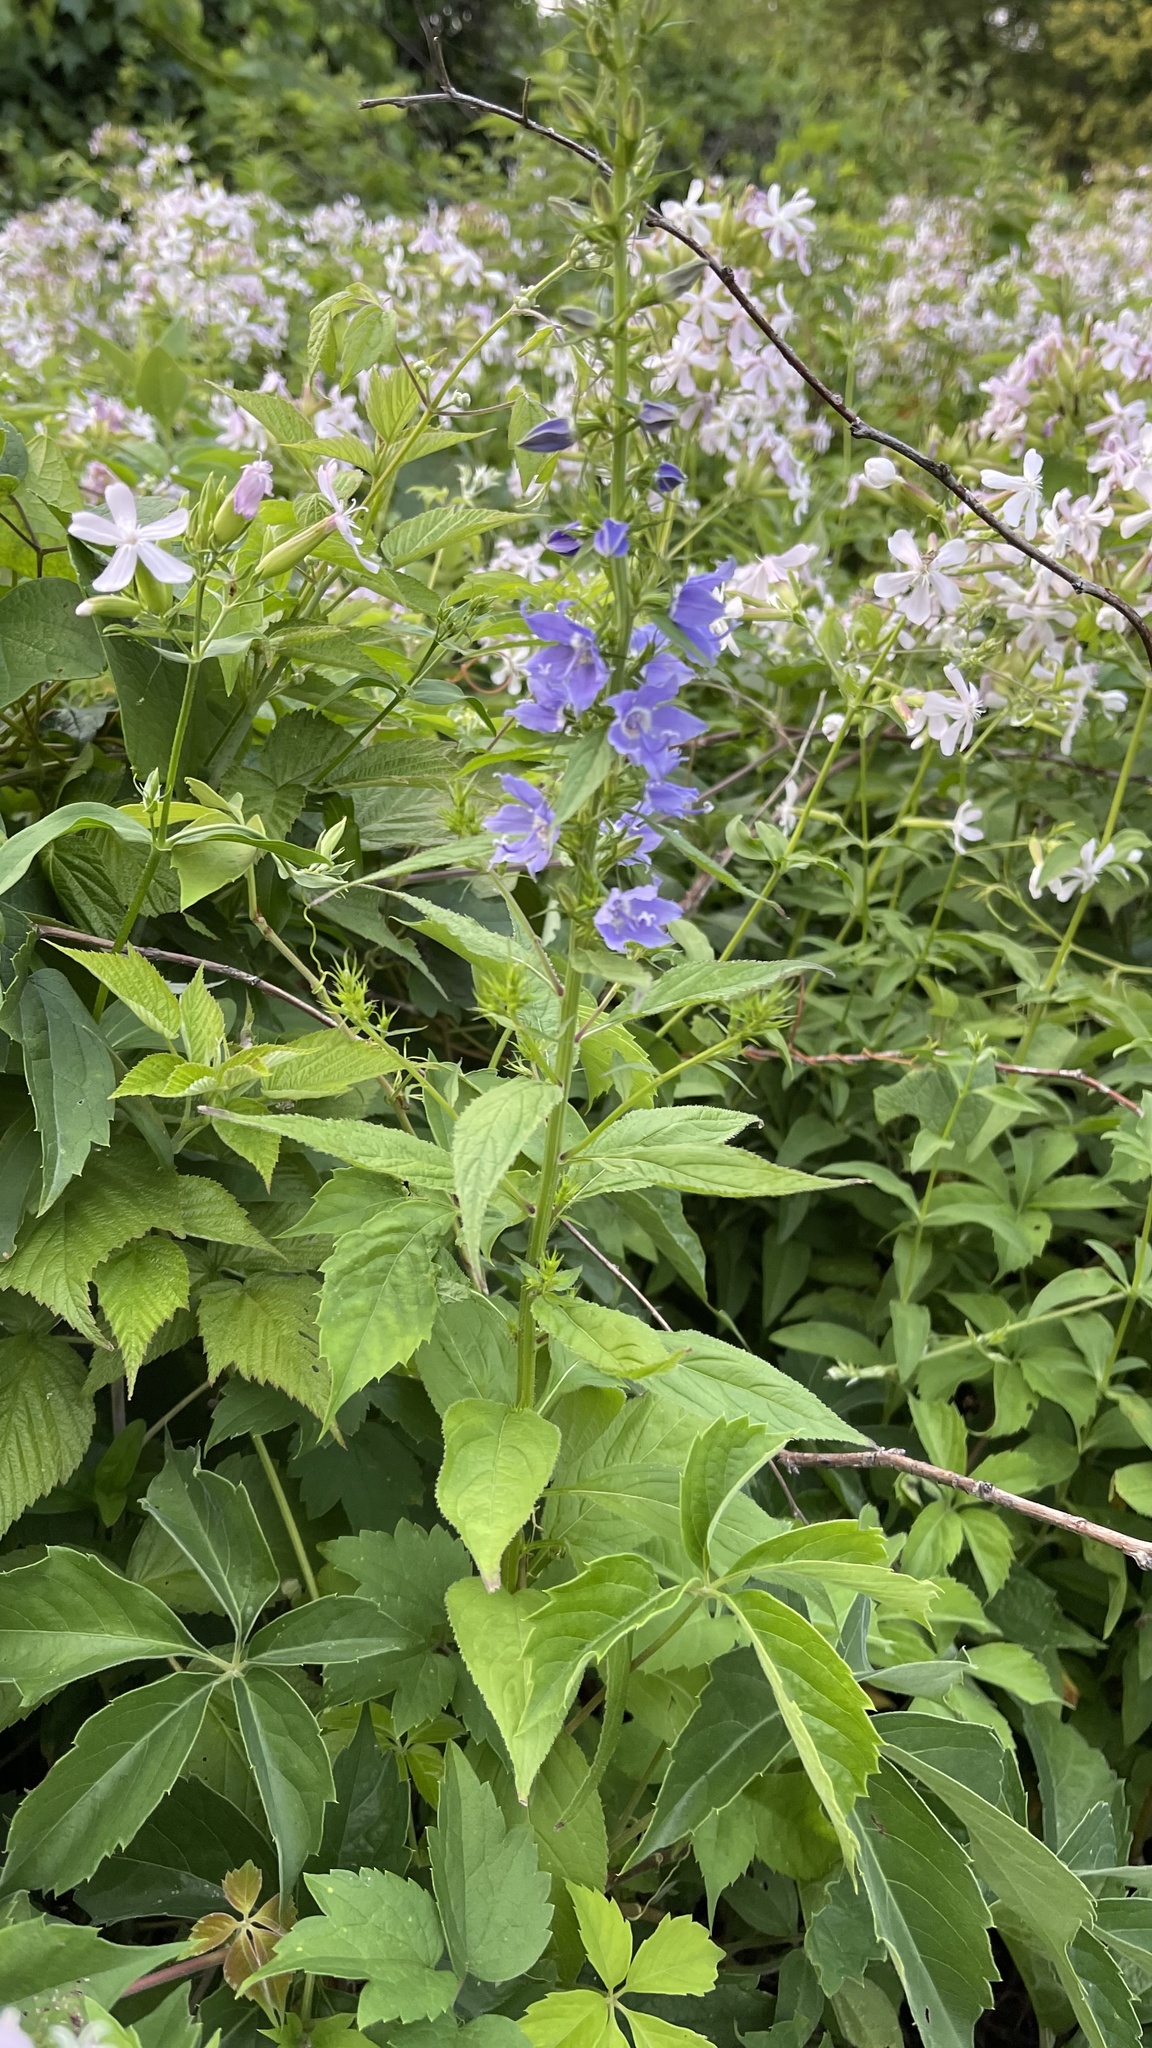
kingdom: Plantae
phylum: Tracheophyta
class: Magnoliopsida
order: Asterales
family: Campanulaceae
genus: Campanulastrum
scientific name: Campanulastrum americanum
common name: American bellflower
